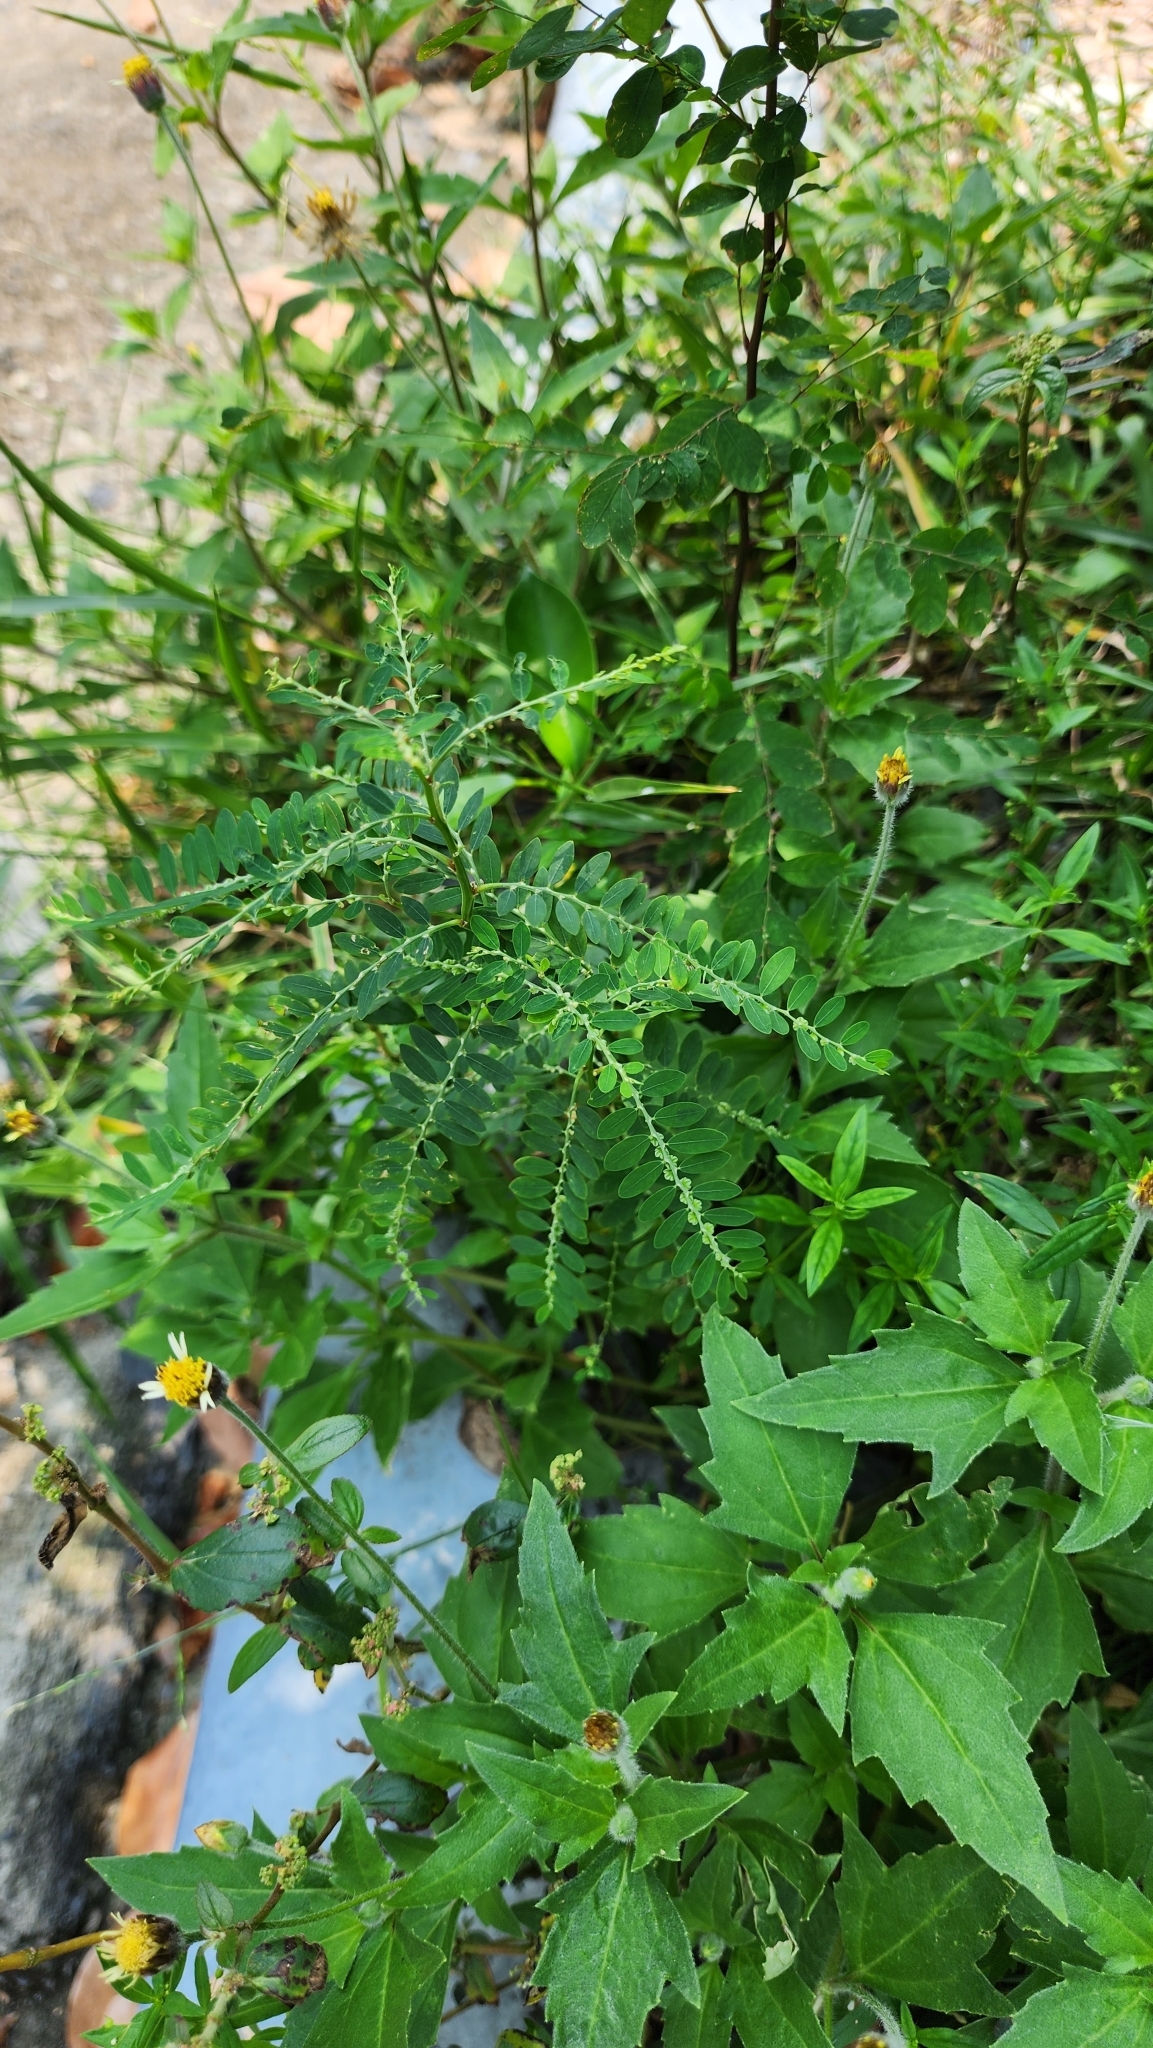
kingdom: Plantae
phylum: Tracheophyta
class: Magnoliopsida
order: Malpighiales
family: Phyllanthaceae
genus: Phyllanthus
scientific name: Phyllanthus debilis
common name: Niruri
